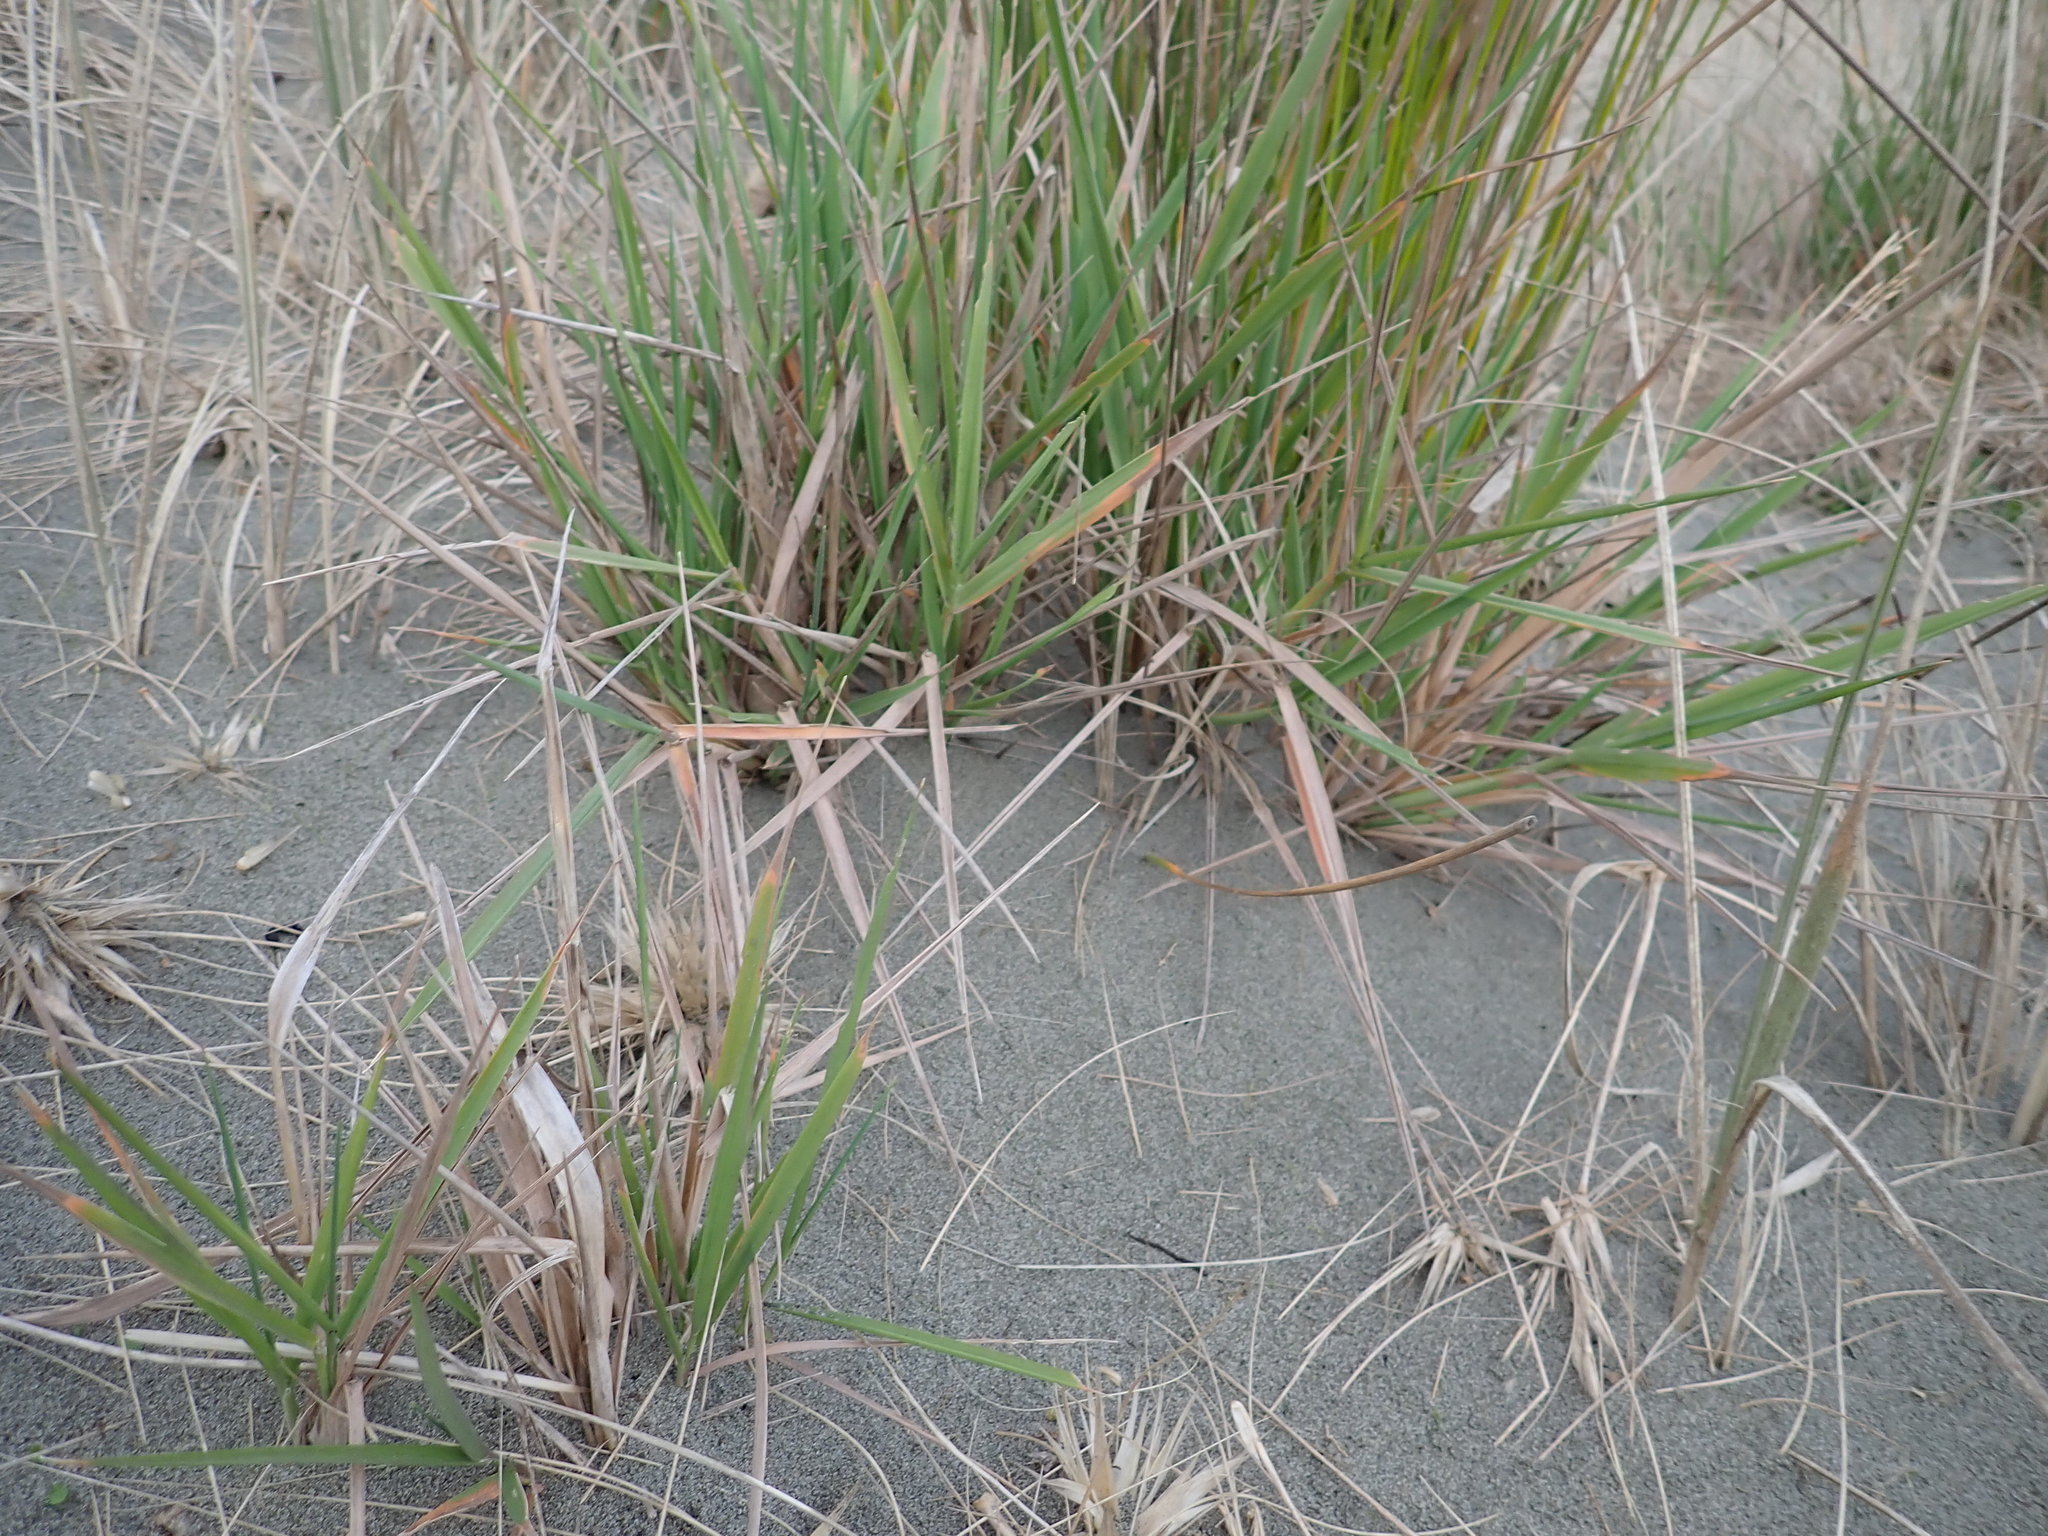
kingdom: Plantae
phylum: Tracheophyta
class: Liliopsida
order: Poales
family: Poaceae
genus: Lachnagrostis
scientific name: Lachnagrostis billardierei
